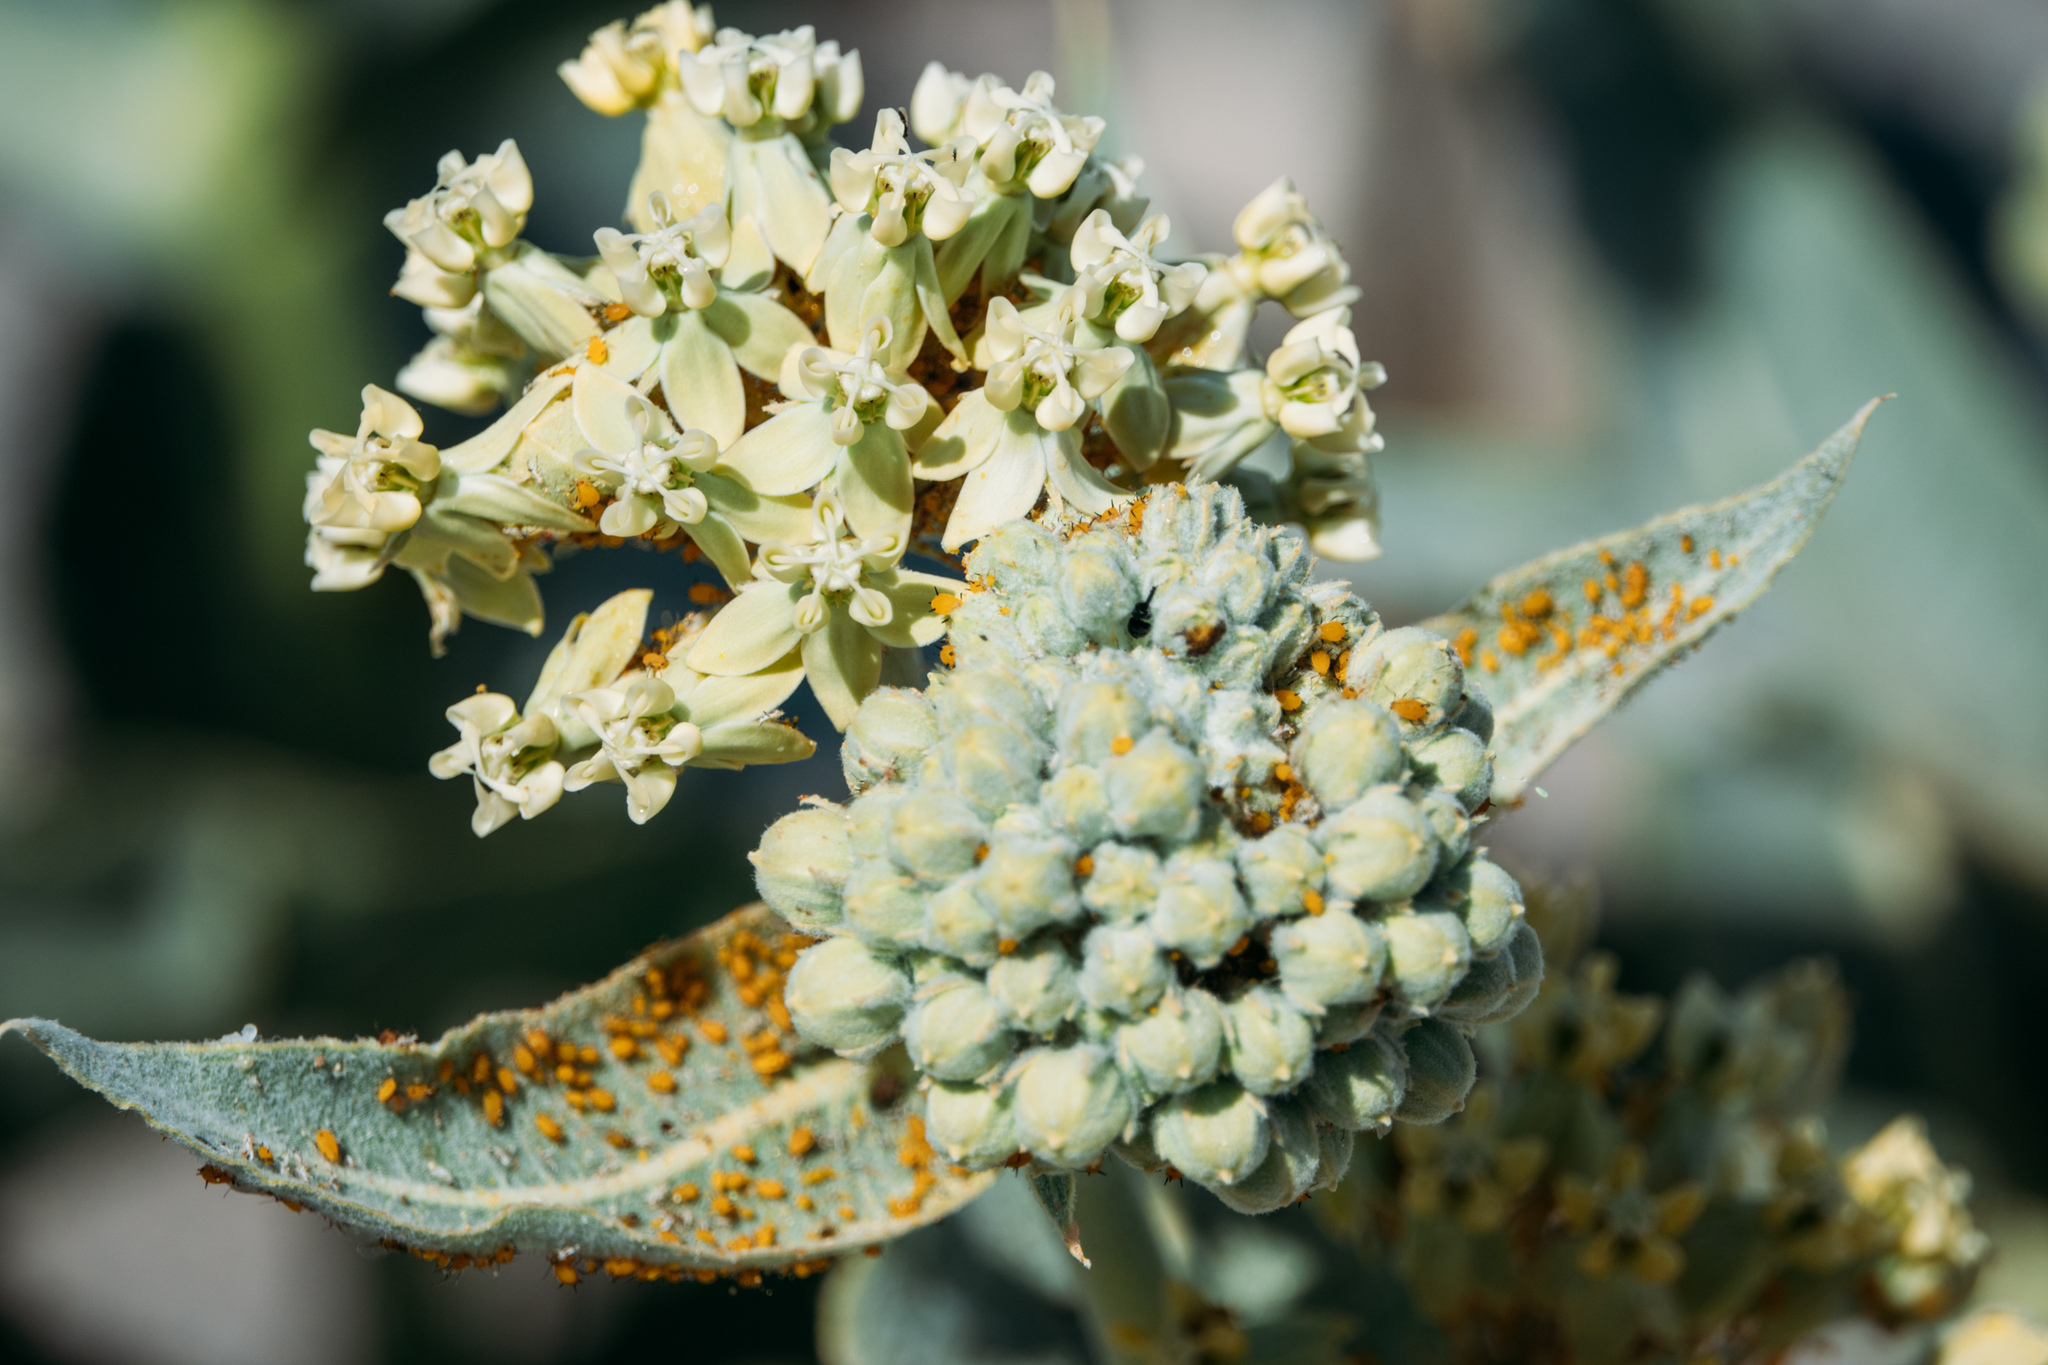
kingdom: Plantae
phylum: Tracheophyta
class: Magnoliopsida
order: Gentianales
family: Apocynaceae
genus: Asclepias
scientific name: Asclepias erosa
